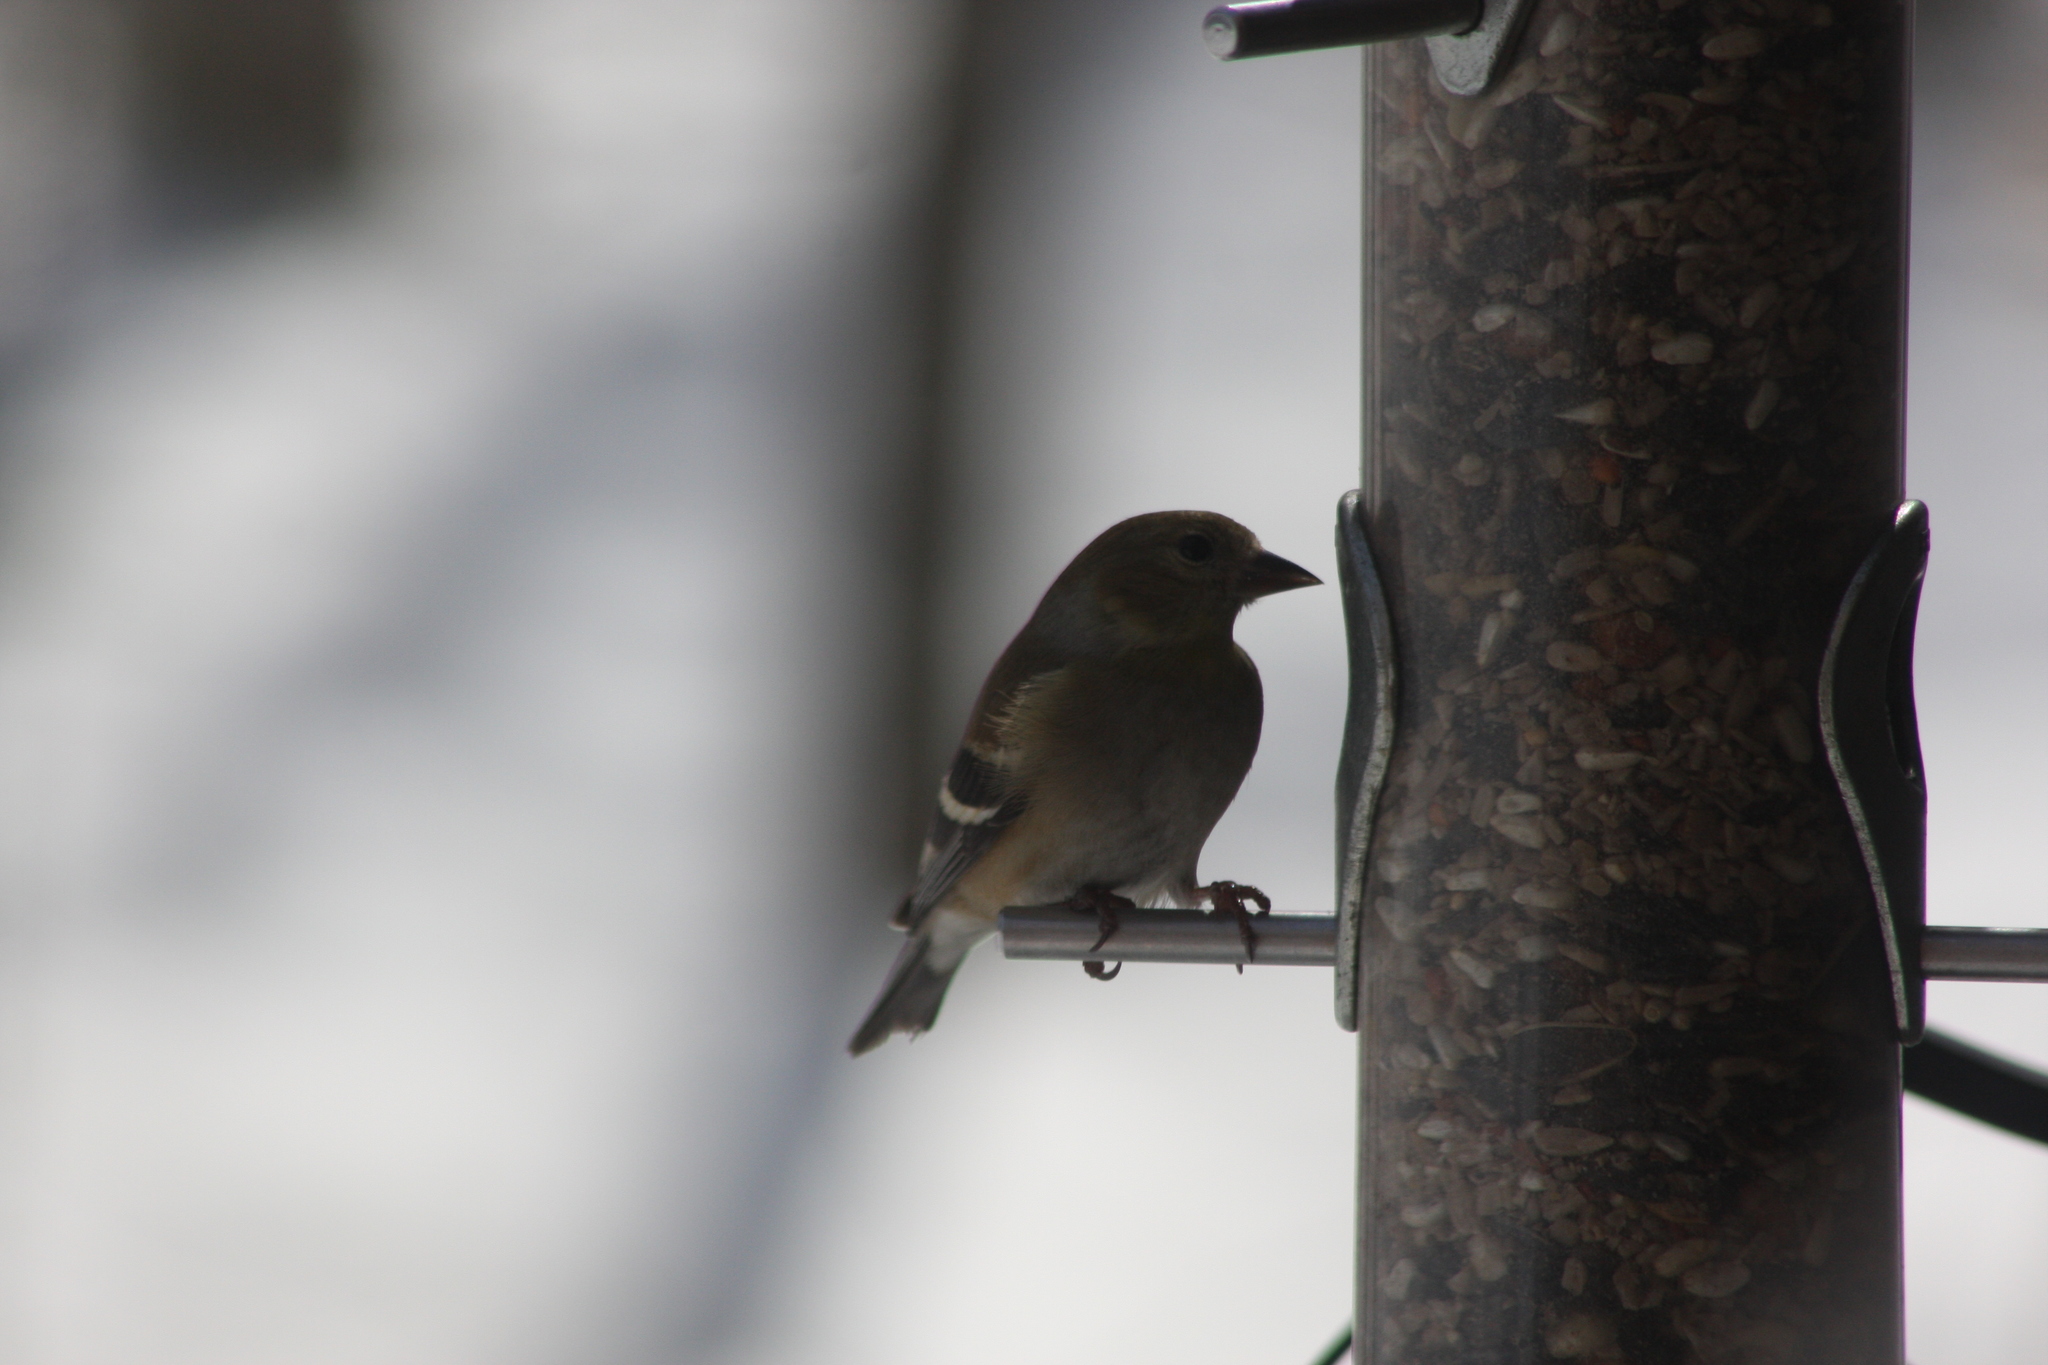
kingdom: Animalia
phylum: Chordata
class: Aves
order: Passeriformes
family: Fringillidae
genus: Spinus
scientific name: Spinus tristis
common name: American goldfinch
